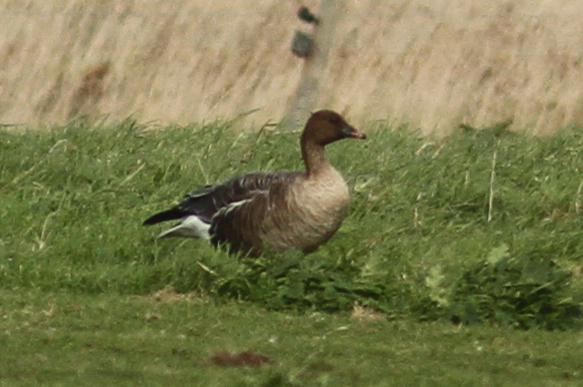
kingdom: Animalia
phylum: Chordata
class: Aves
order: Anseriformes
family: Anatidae
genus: Anser
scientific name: Anser brachyrhynchus
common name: Pink-footed goose
